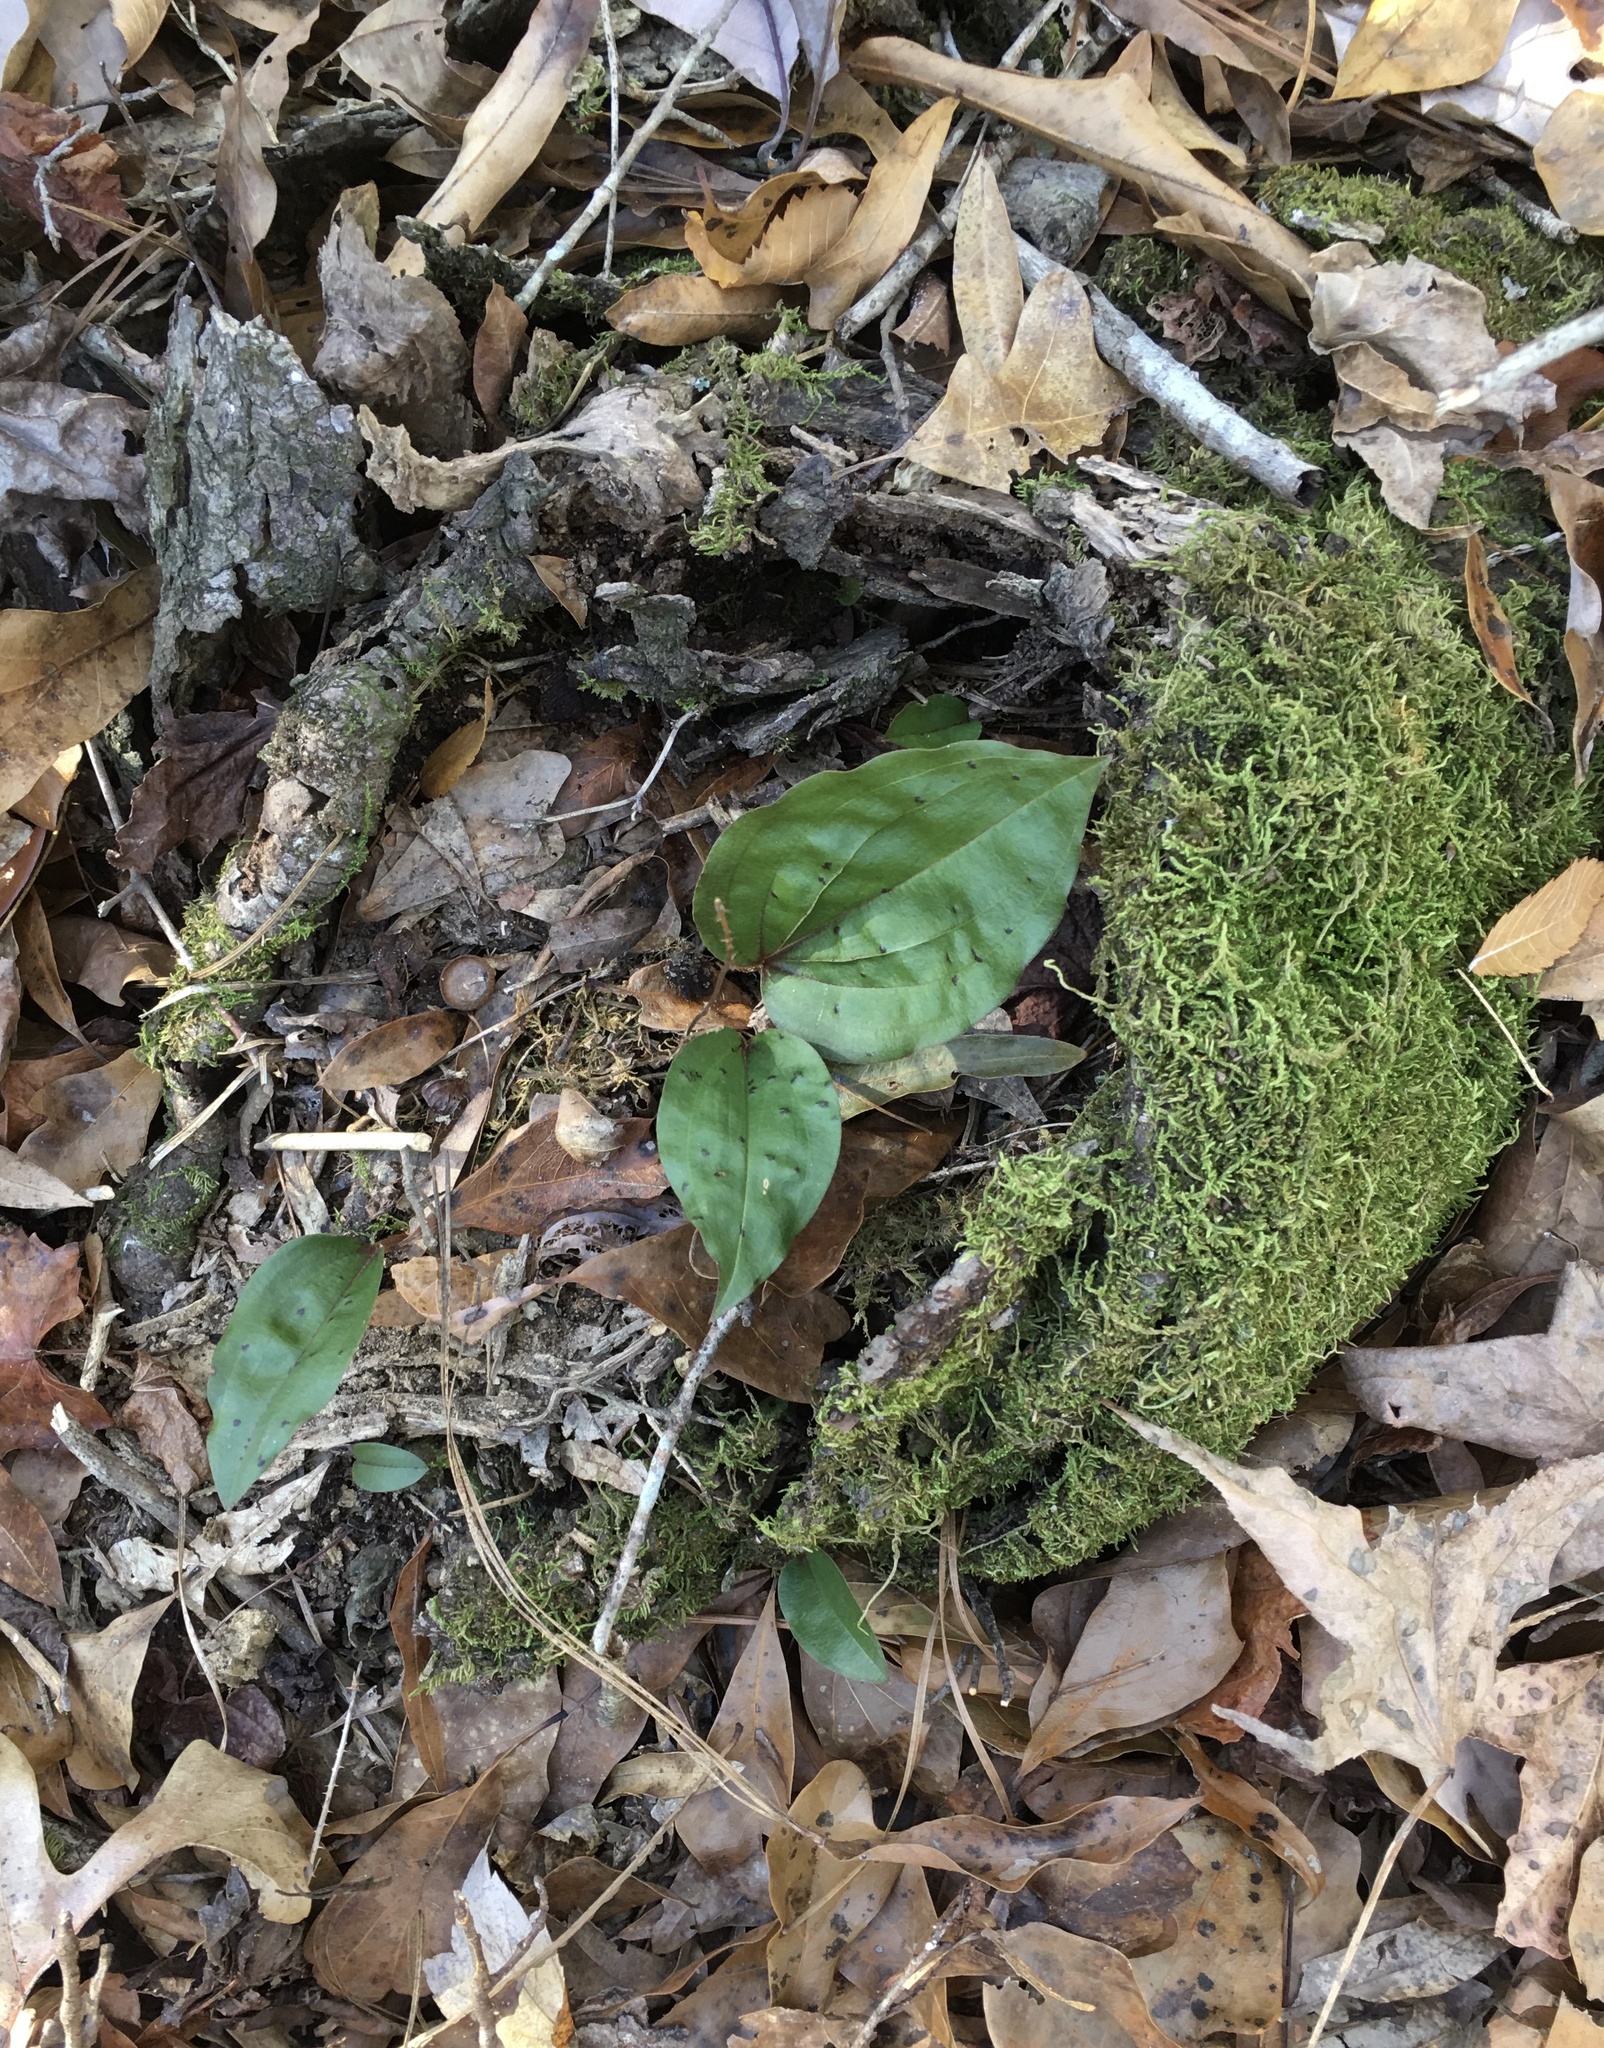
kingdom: Plantae
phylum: Tracheophyta
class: Liliopsida
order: Asparagales
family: Orchidaceae
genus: Tipularia
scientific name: Tipularia discolor
